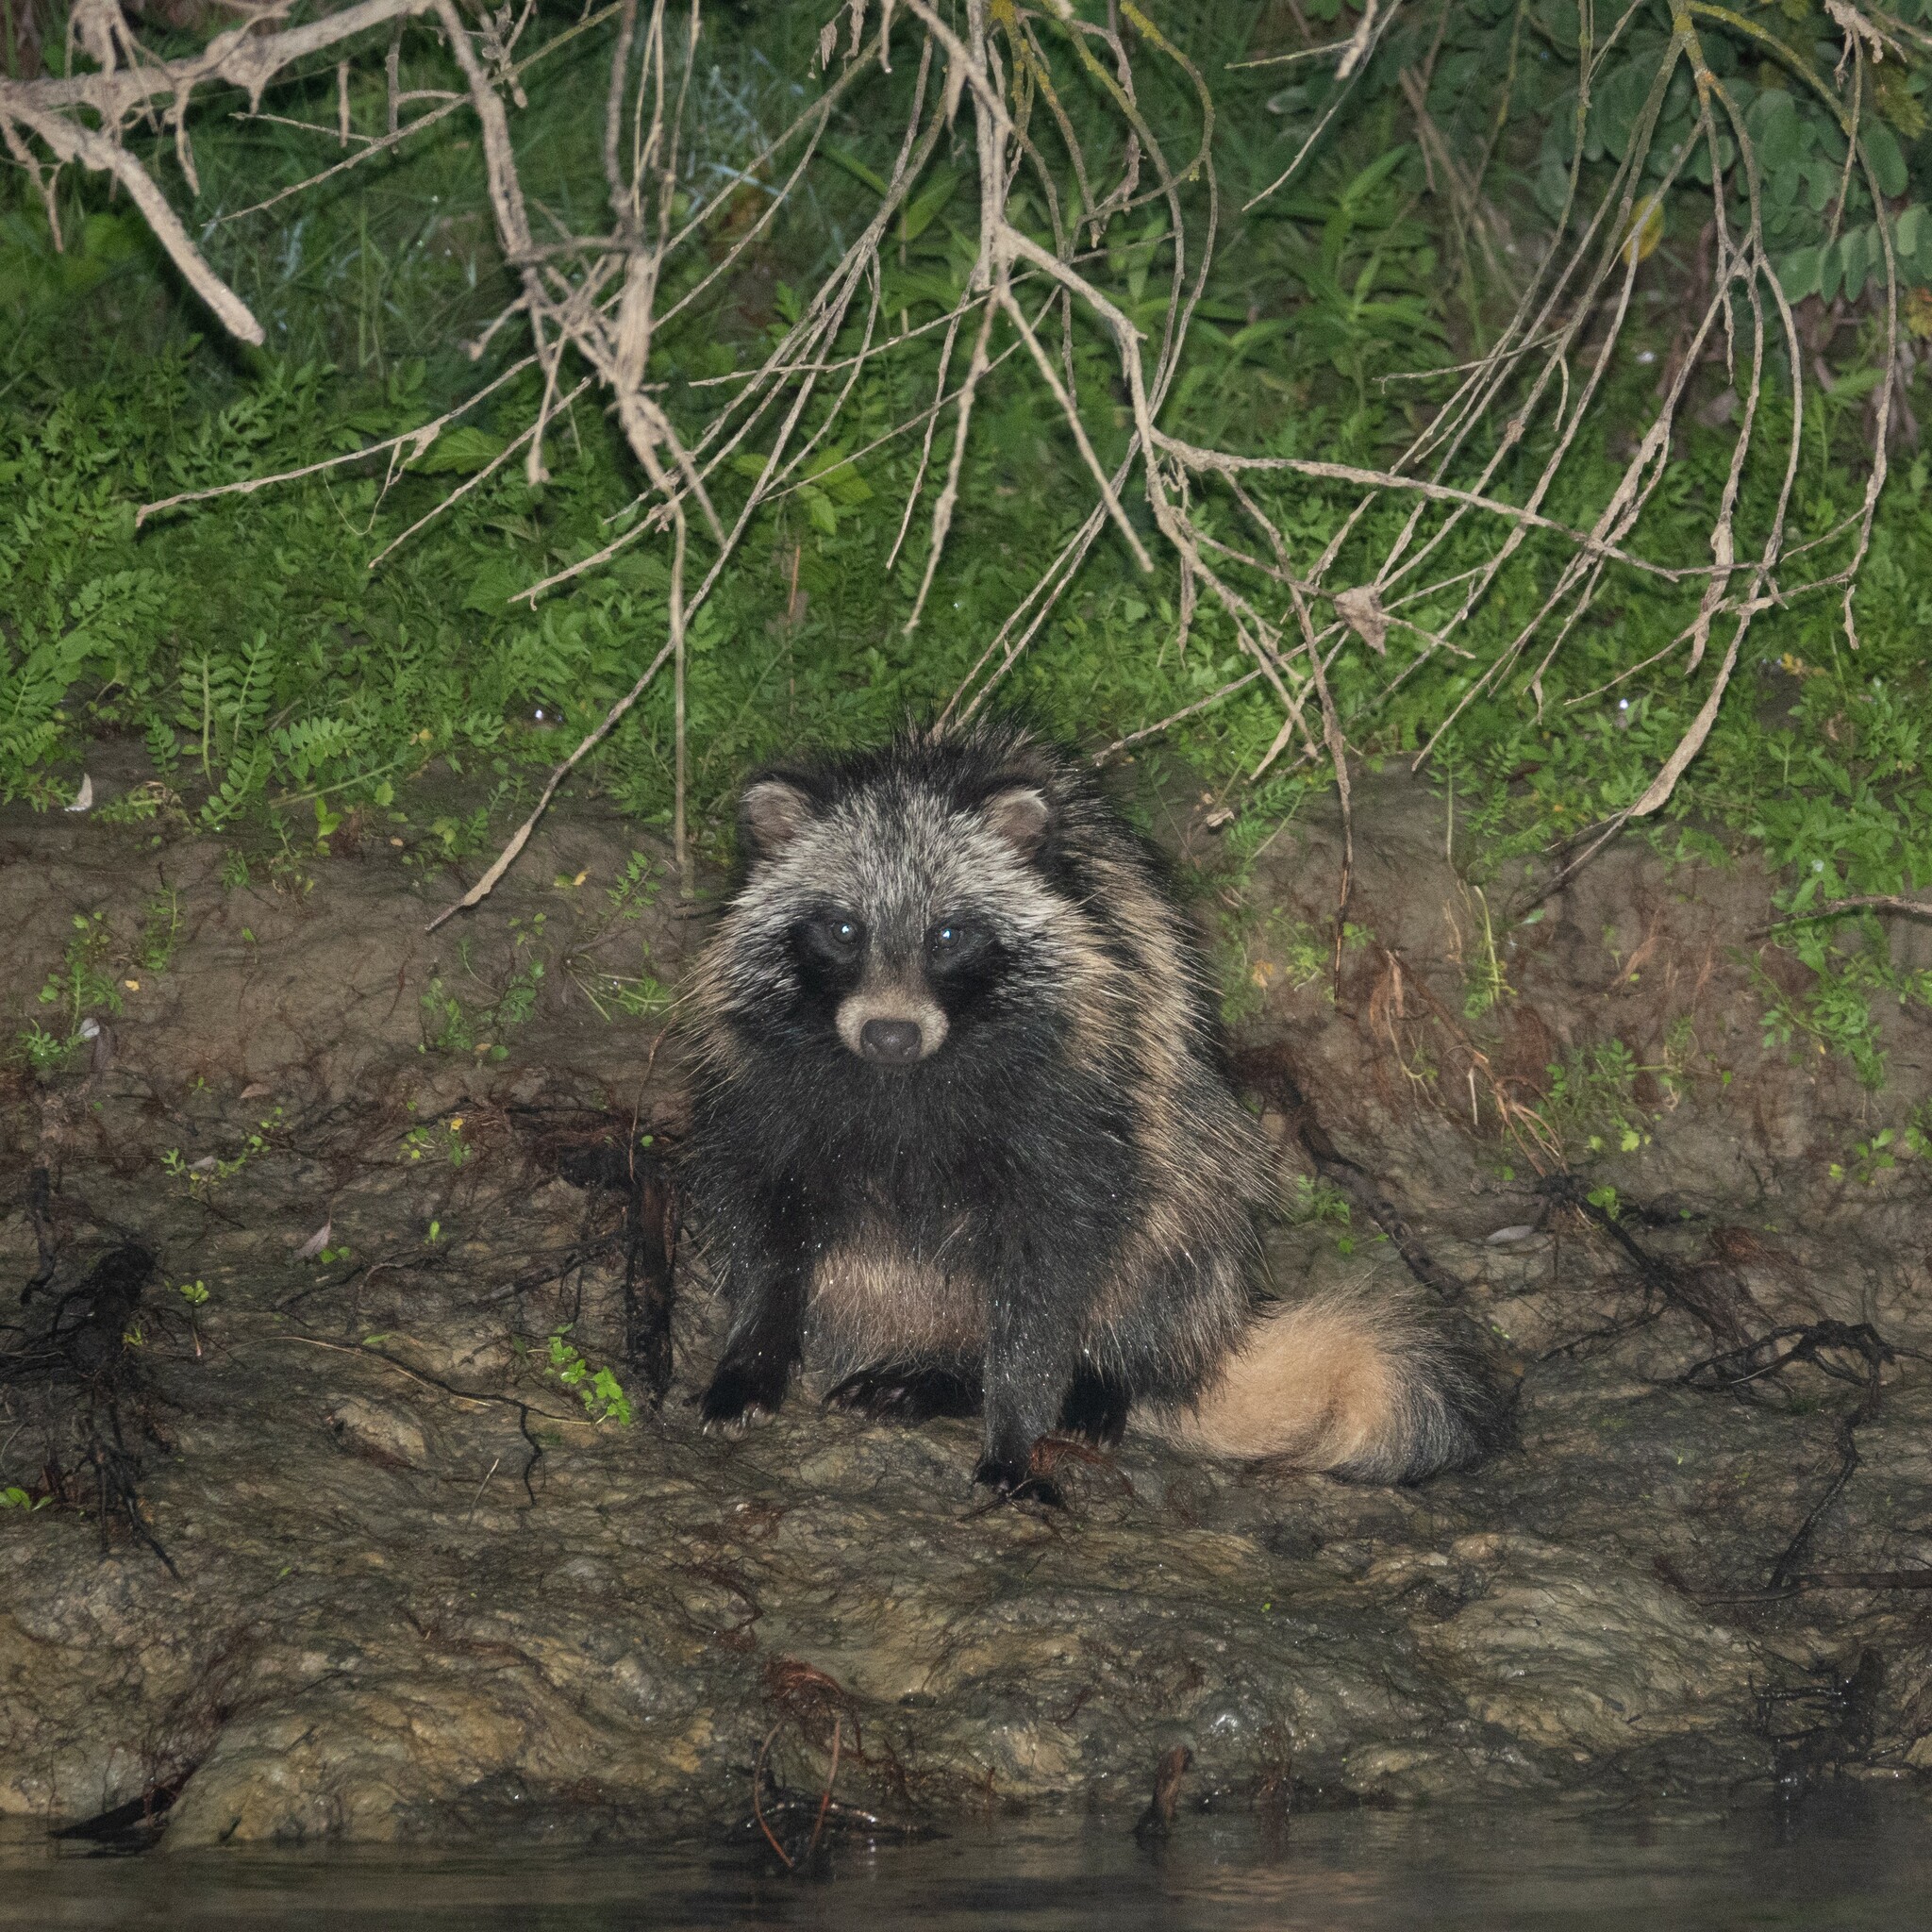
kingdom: Animalia
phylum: Chordata
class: Mammalia
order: Carnivora
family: Canidae
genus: Nyctereutes
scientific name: Nyctereutes procyonoides
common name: Raccoon dog
